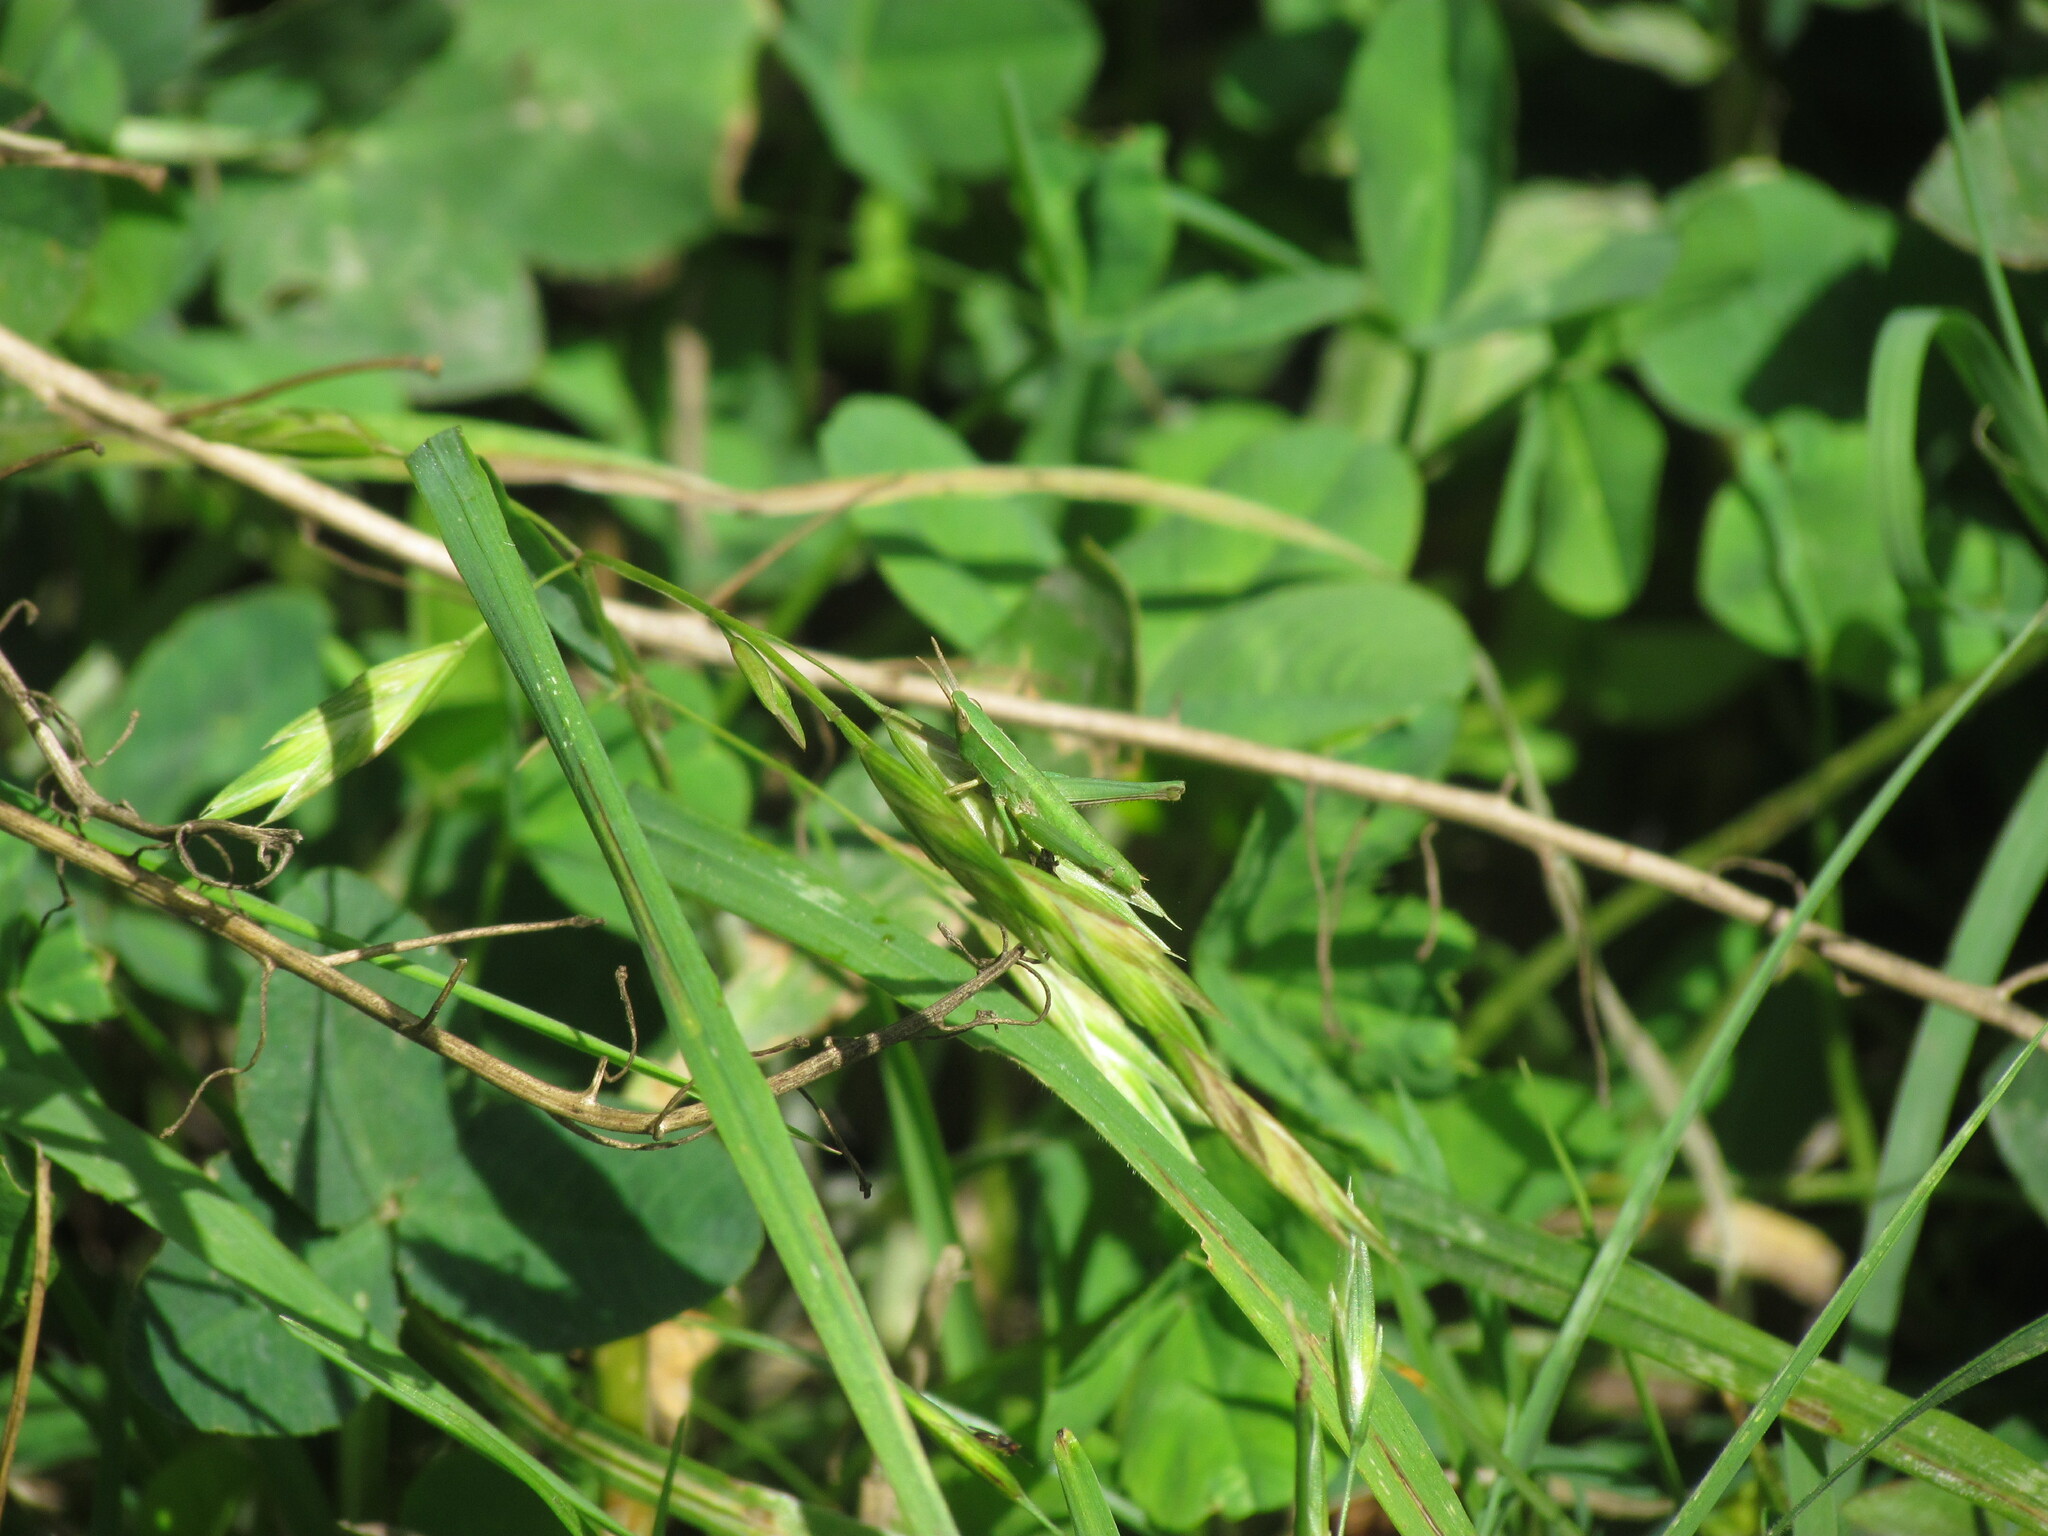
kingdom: Animalia
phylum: Arthropoda
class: Insecta
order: Orthoptera
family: Acrididae
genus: Metaleptea
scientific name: Metaleptea adspersa
